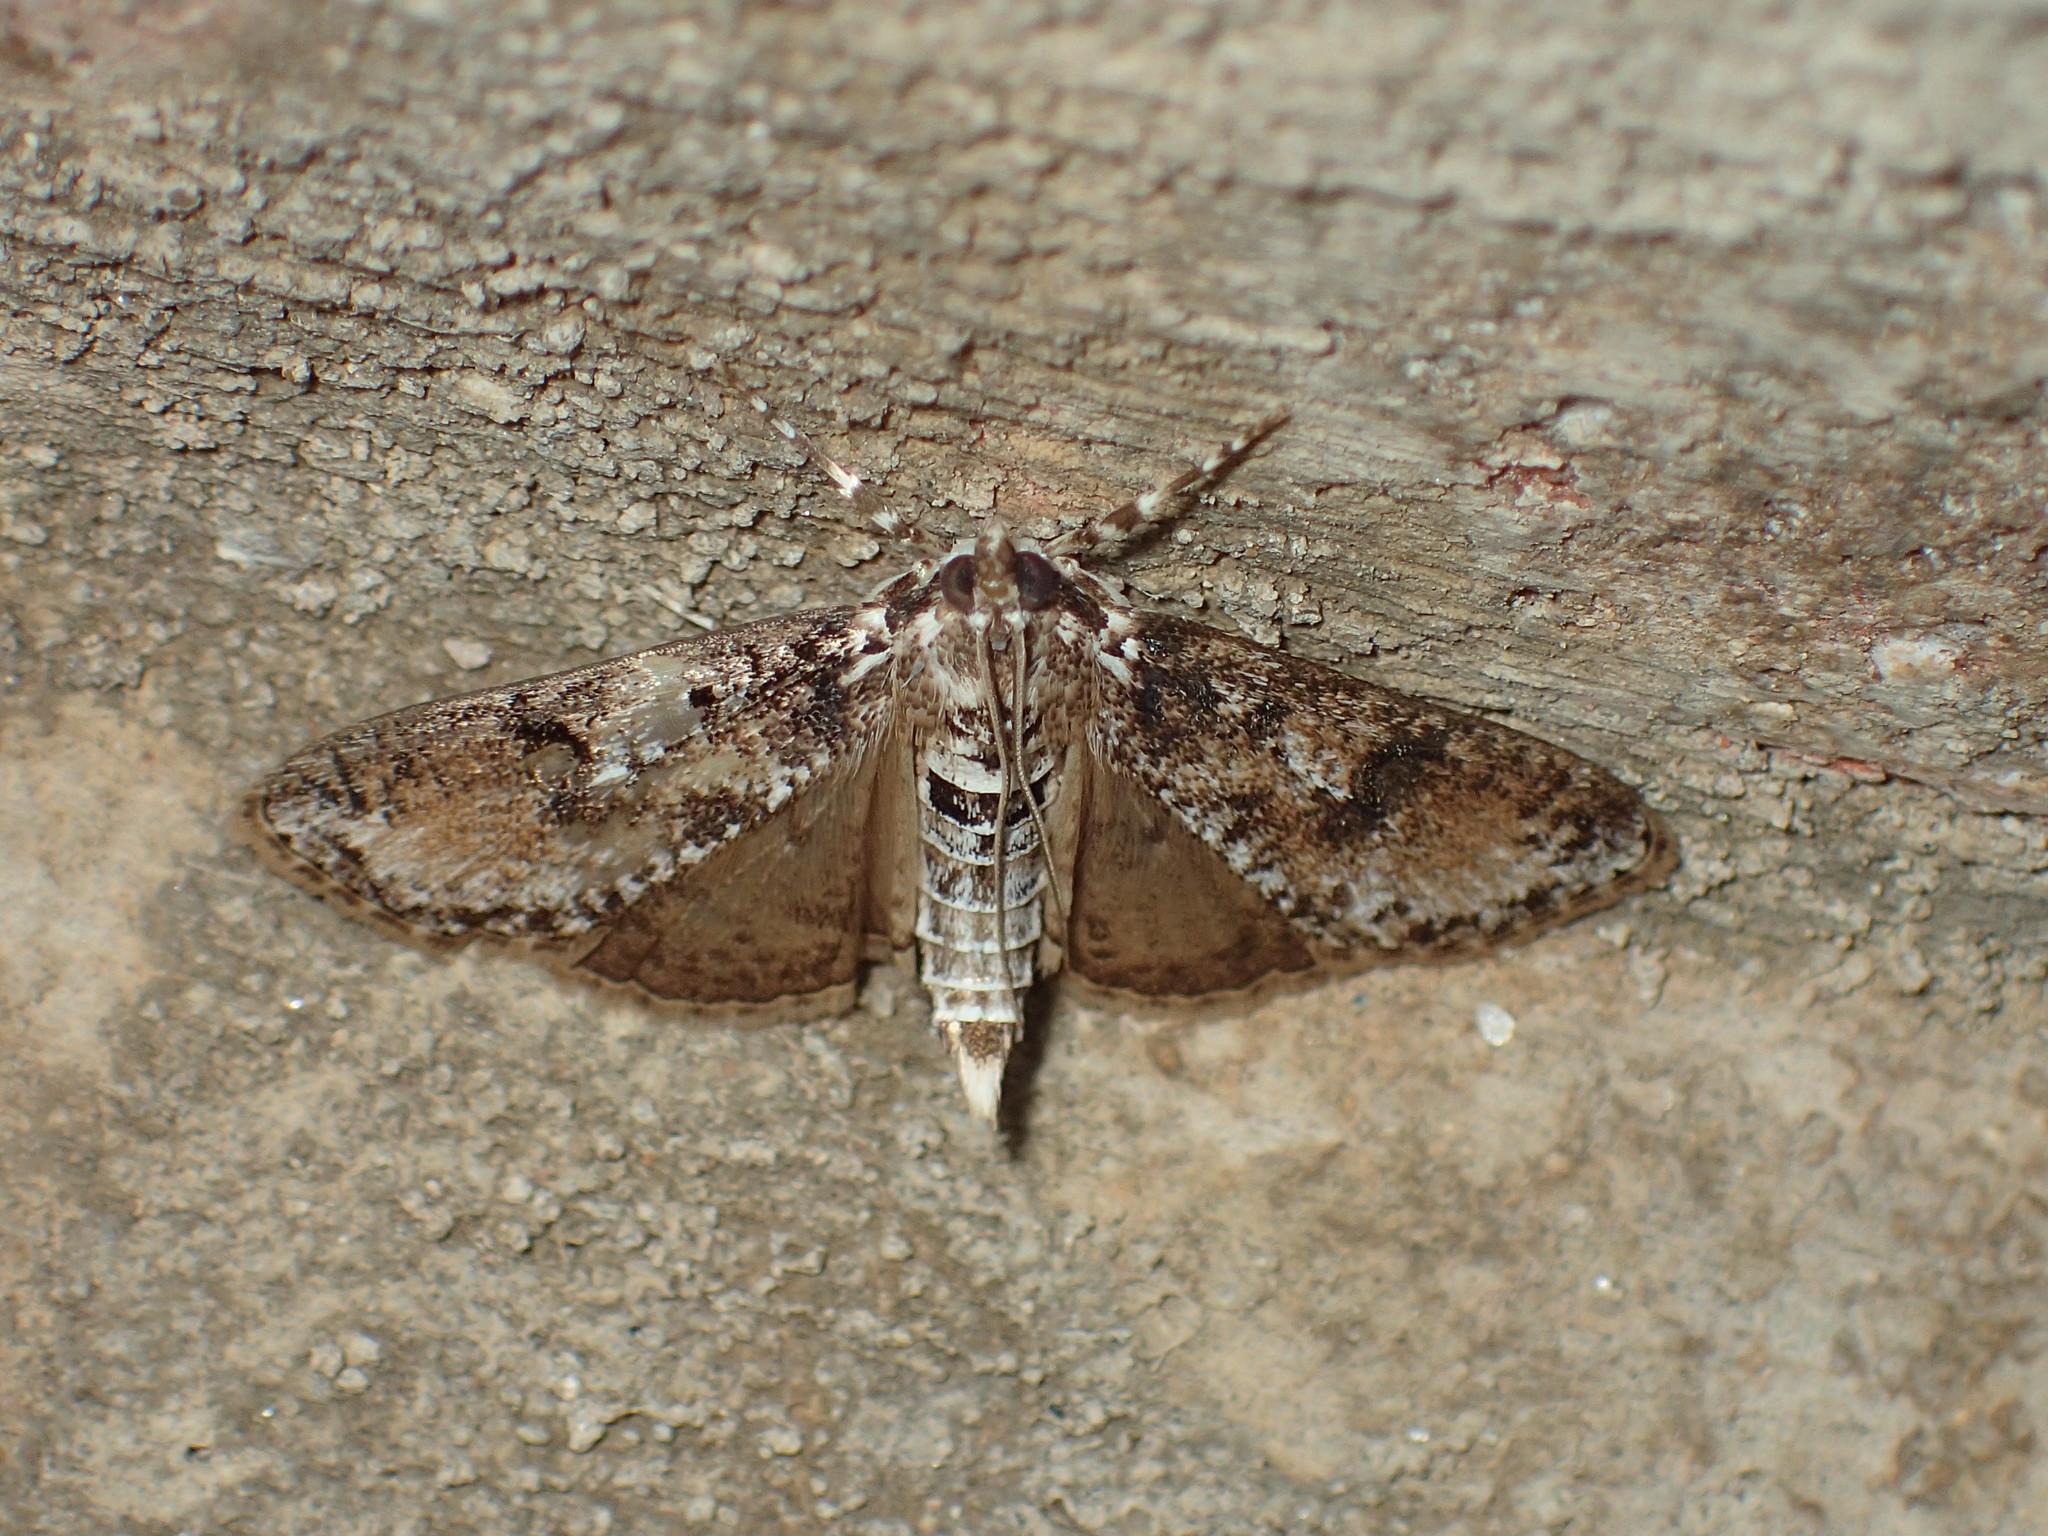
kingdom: Animalia
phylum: Arthropoda
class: Insecta
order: Lepidoptera
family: Crambidae
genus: Palpita
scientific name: Palpita magniferalis
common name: Splendid palpita moth
